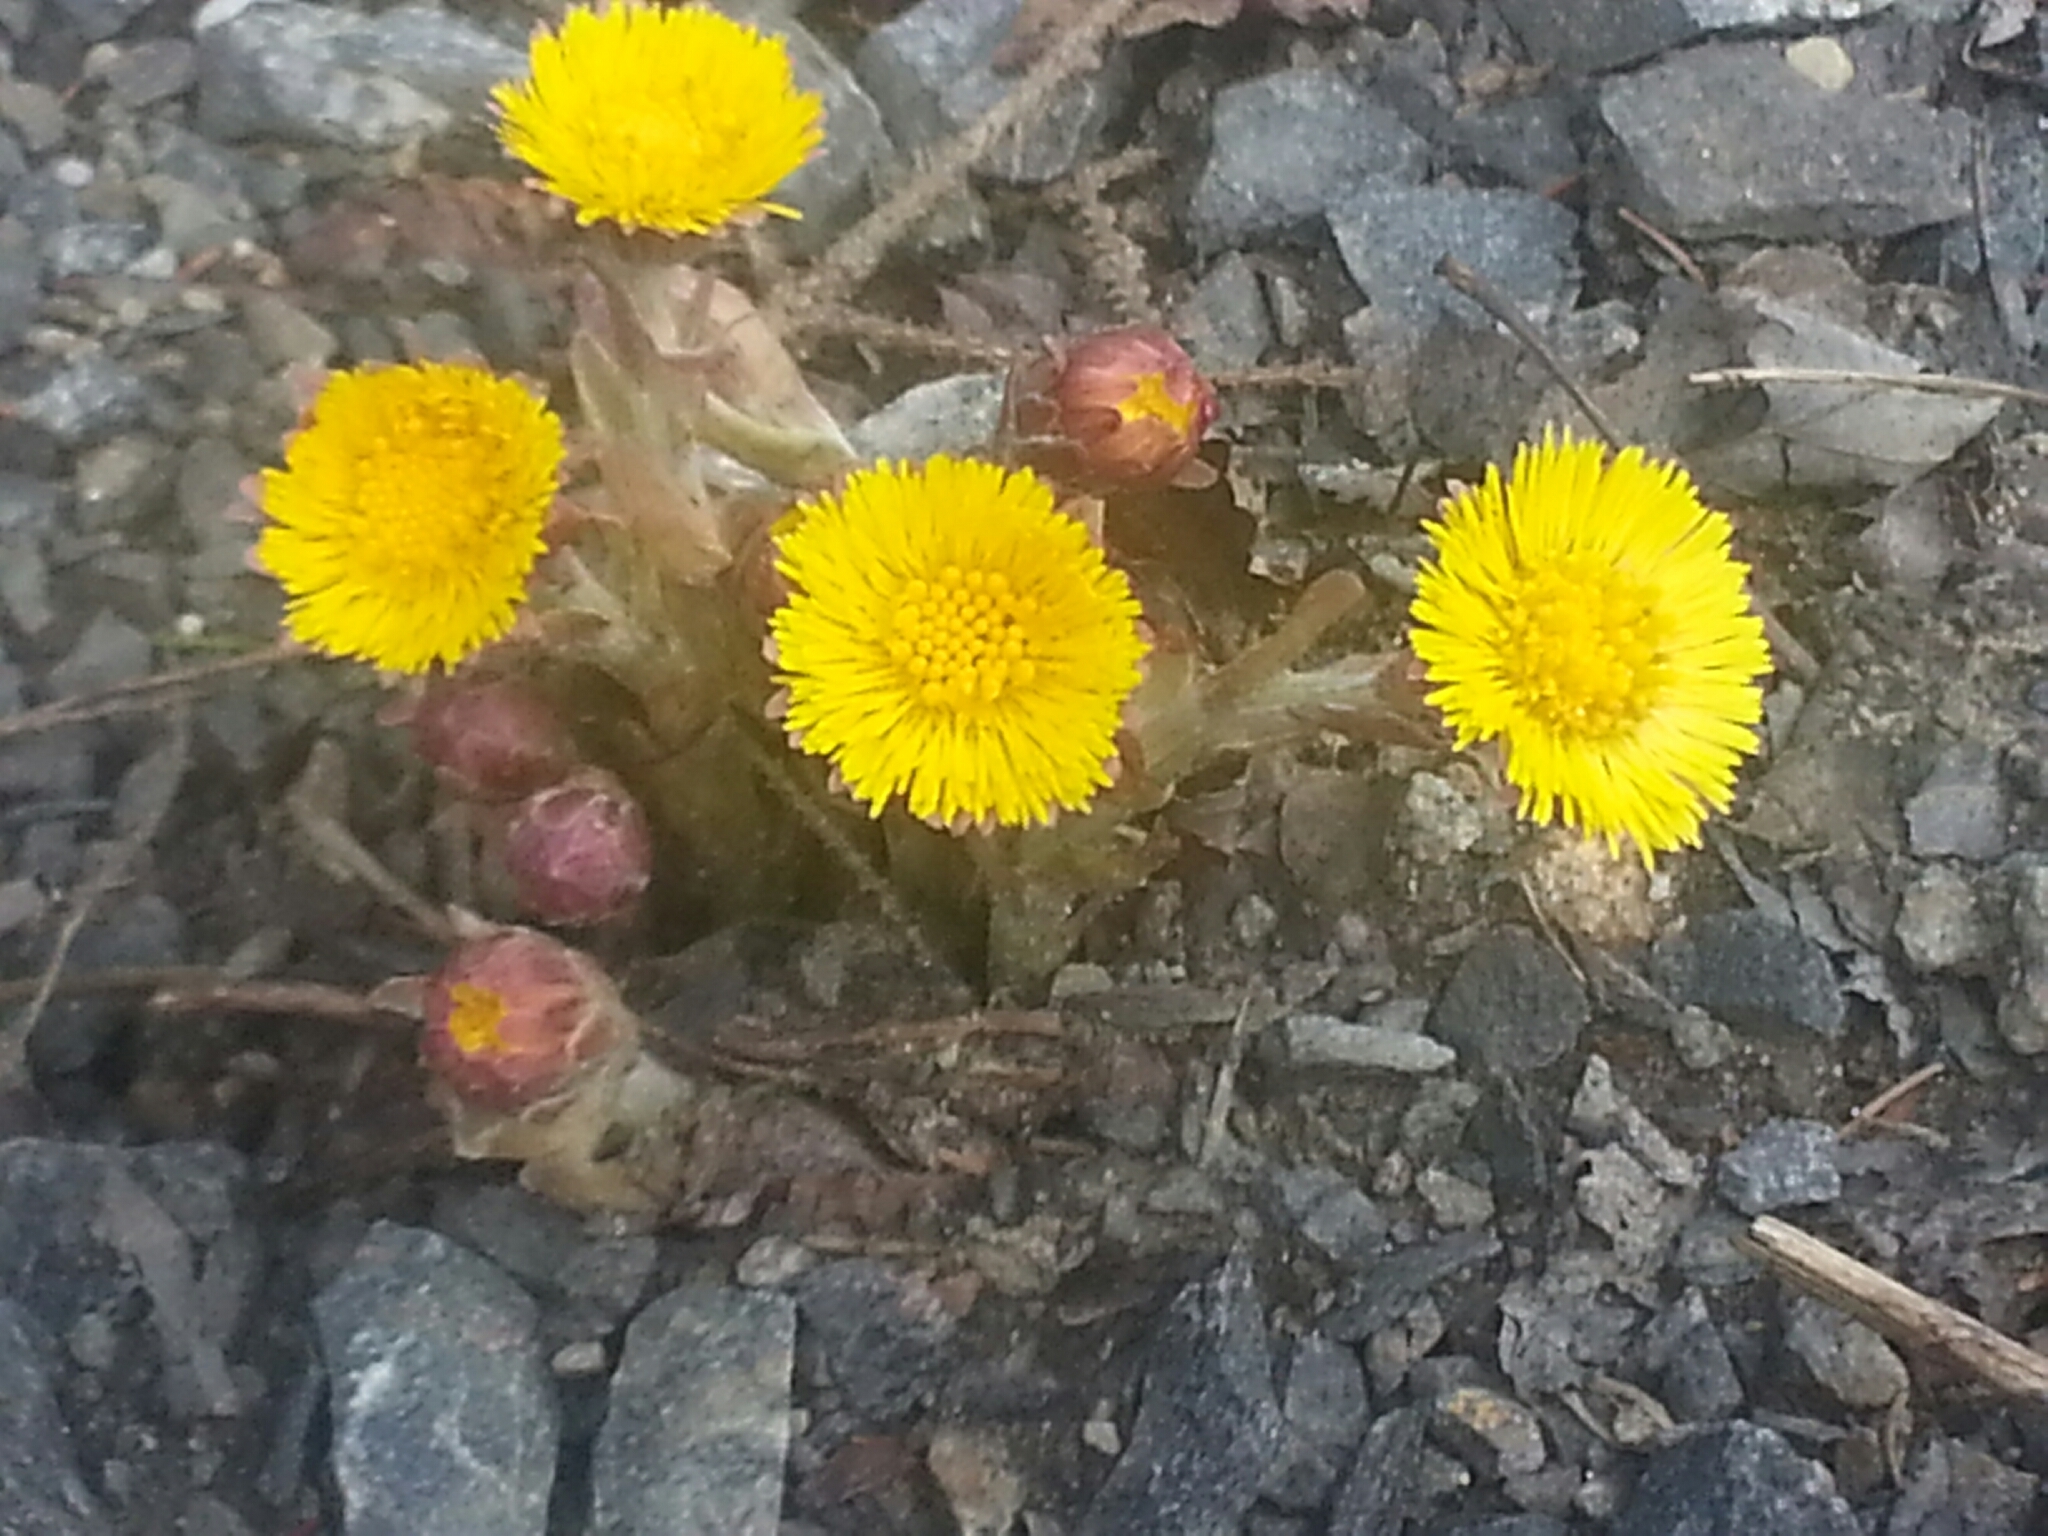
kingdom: Plantae
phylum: Tracheophyta
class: Magnoliopsida
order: Asterales
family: Asteraceae
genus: Tussilago
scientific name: Tussilago farfara
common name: Coltsfoot
